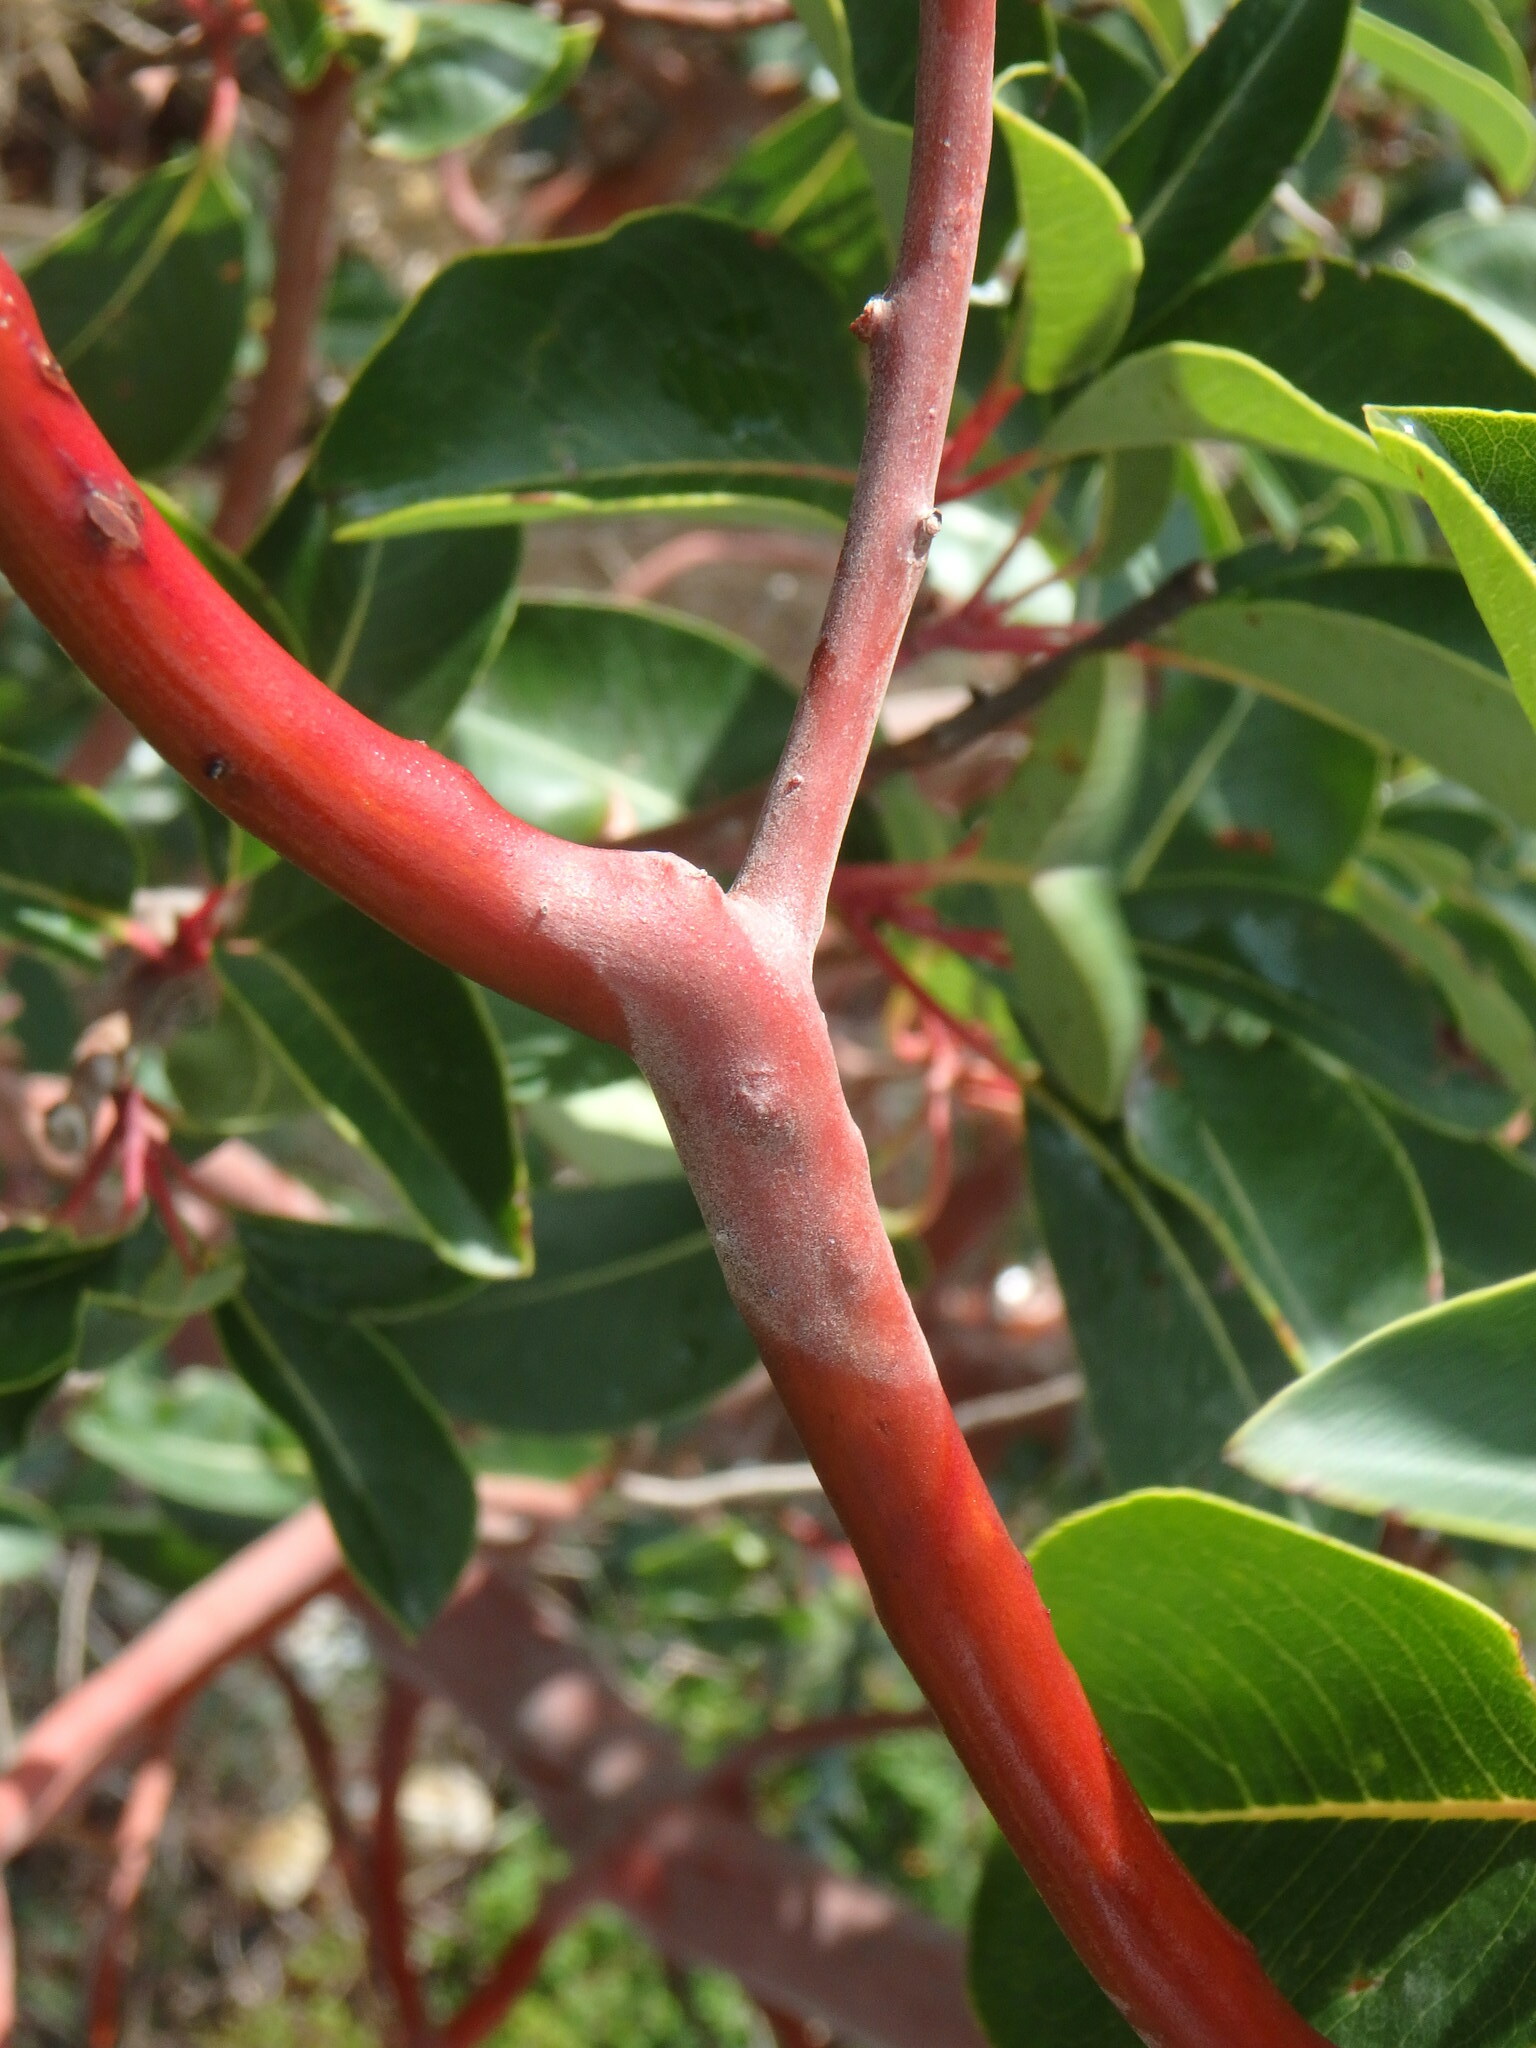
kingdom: Plantae
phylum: Tracheophyta
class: Magnoliopsida
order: Ericales
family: Ericaceae
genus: Arbutus
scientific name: Arbutus andrachne
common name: Greek strawberry tree
